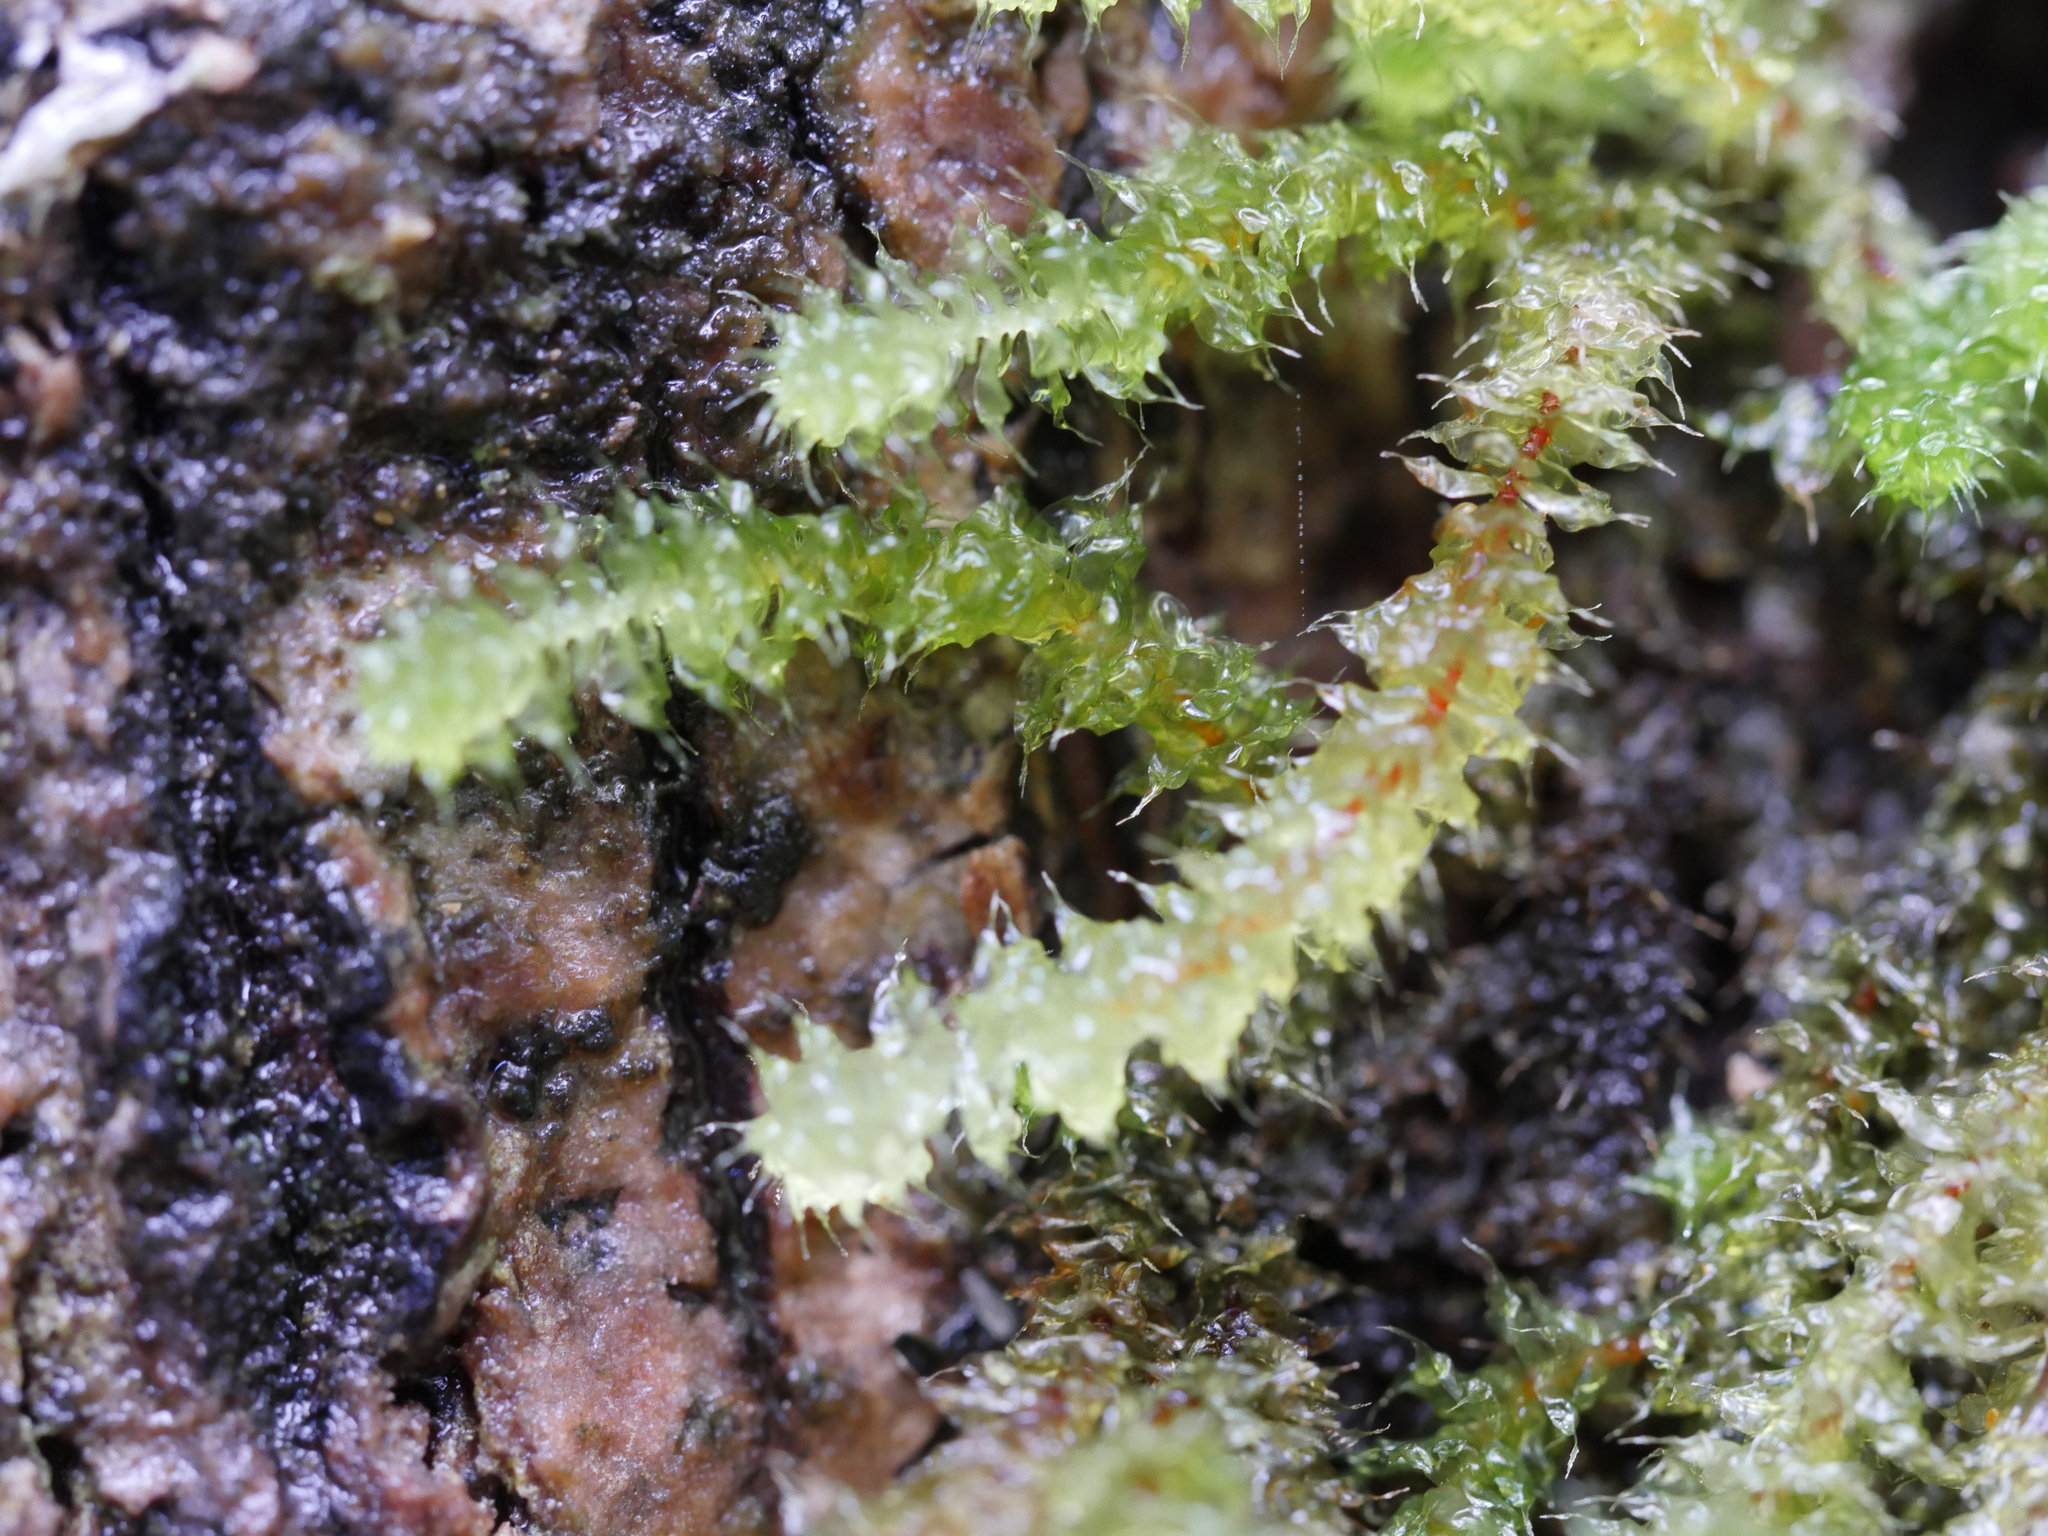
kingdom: Plantae
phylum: Bryophyta
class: Bryopsida
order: Ptychomniales
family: Ptychomniaceae
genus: Ptychomnion
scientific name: Ptychomnion aciculare
